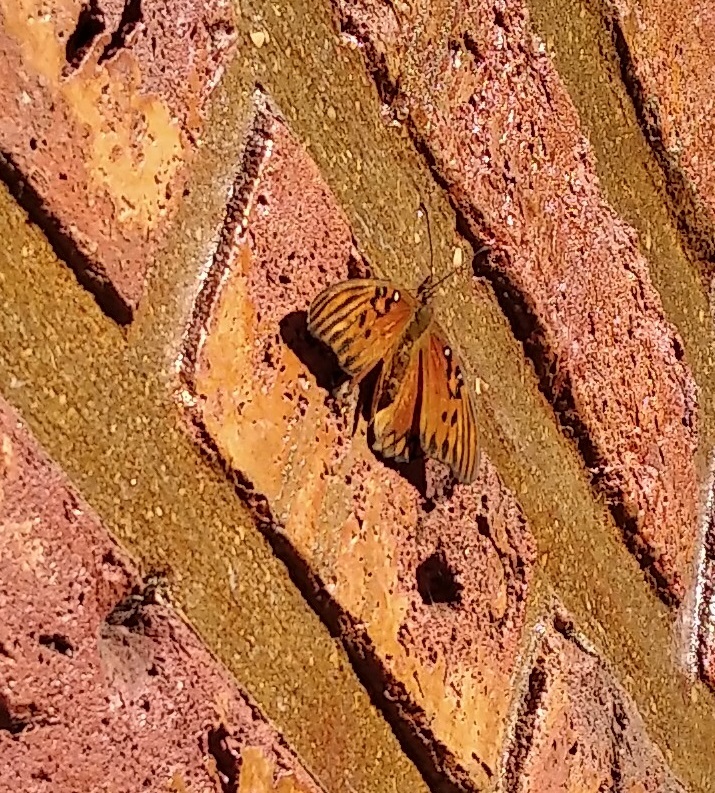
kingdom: Animalia
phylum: Arthropoda
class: Insecta
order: Lepidoptera
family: Nymphalidae
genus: Dione
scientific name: Dione vanillae
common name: Gulf fritillary
